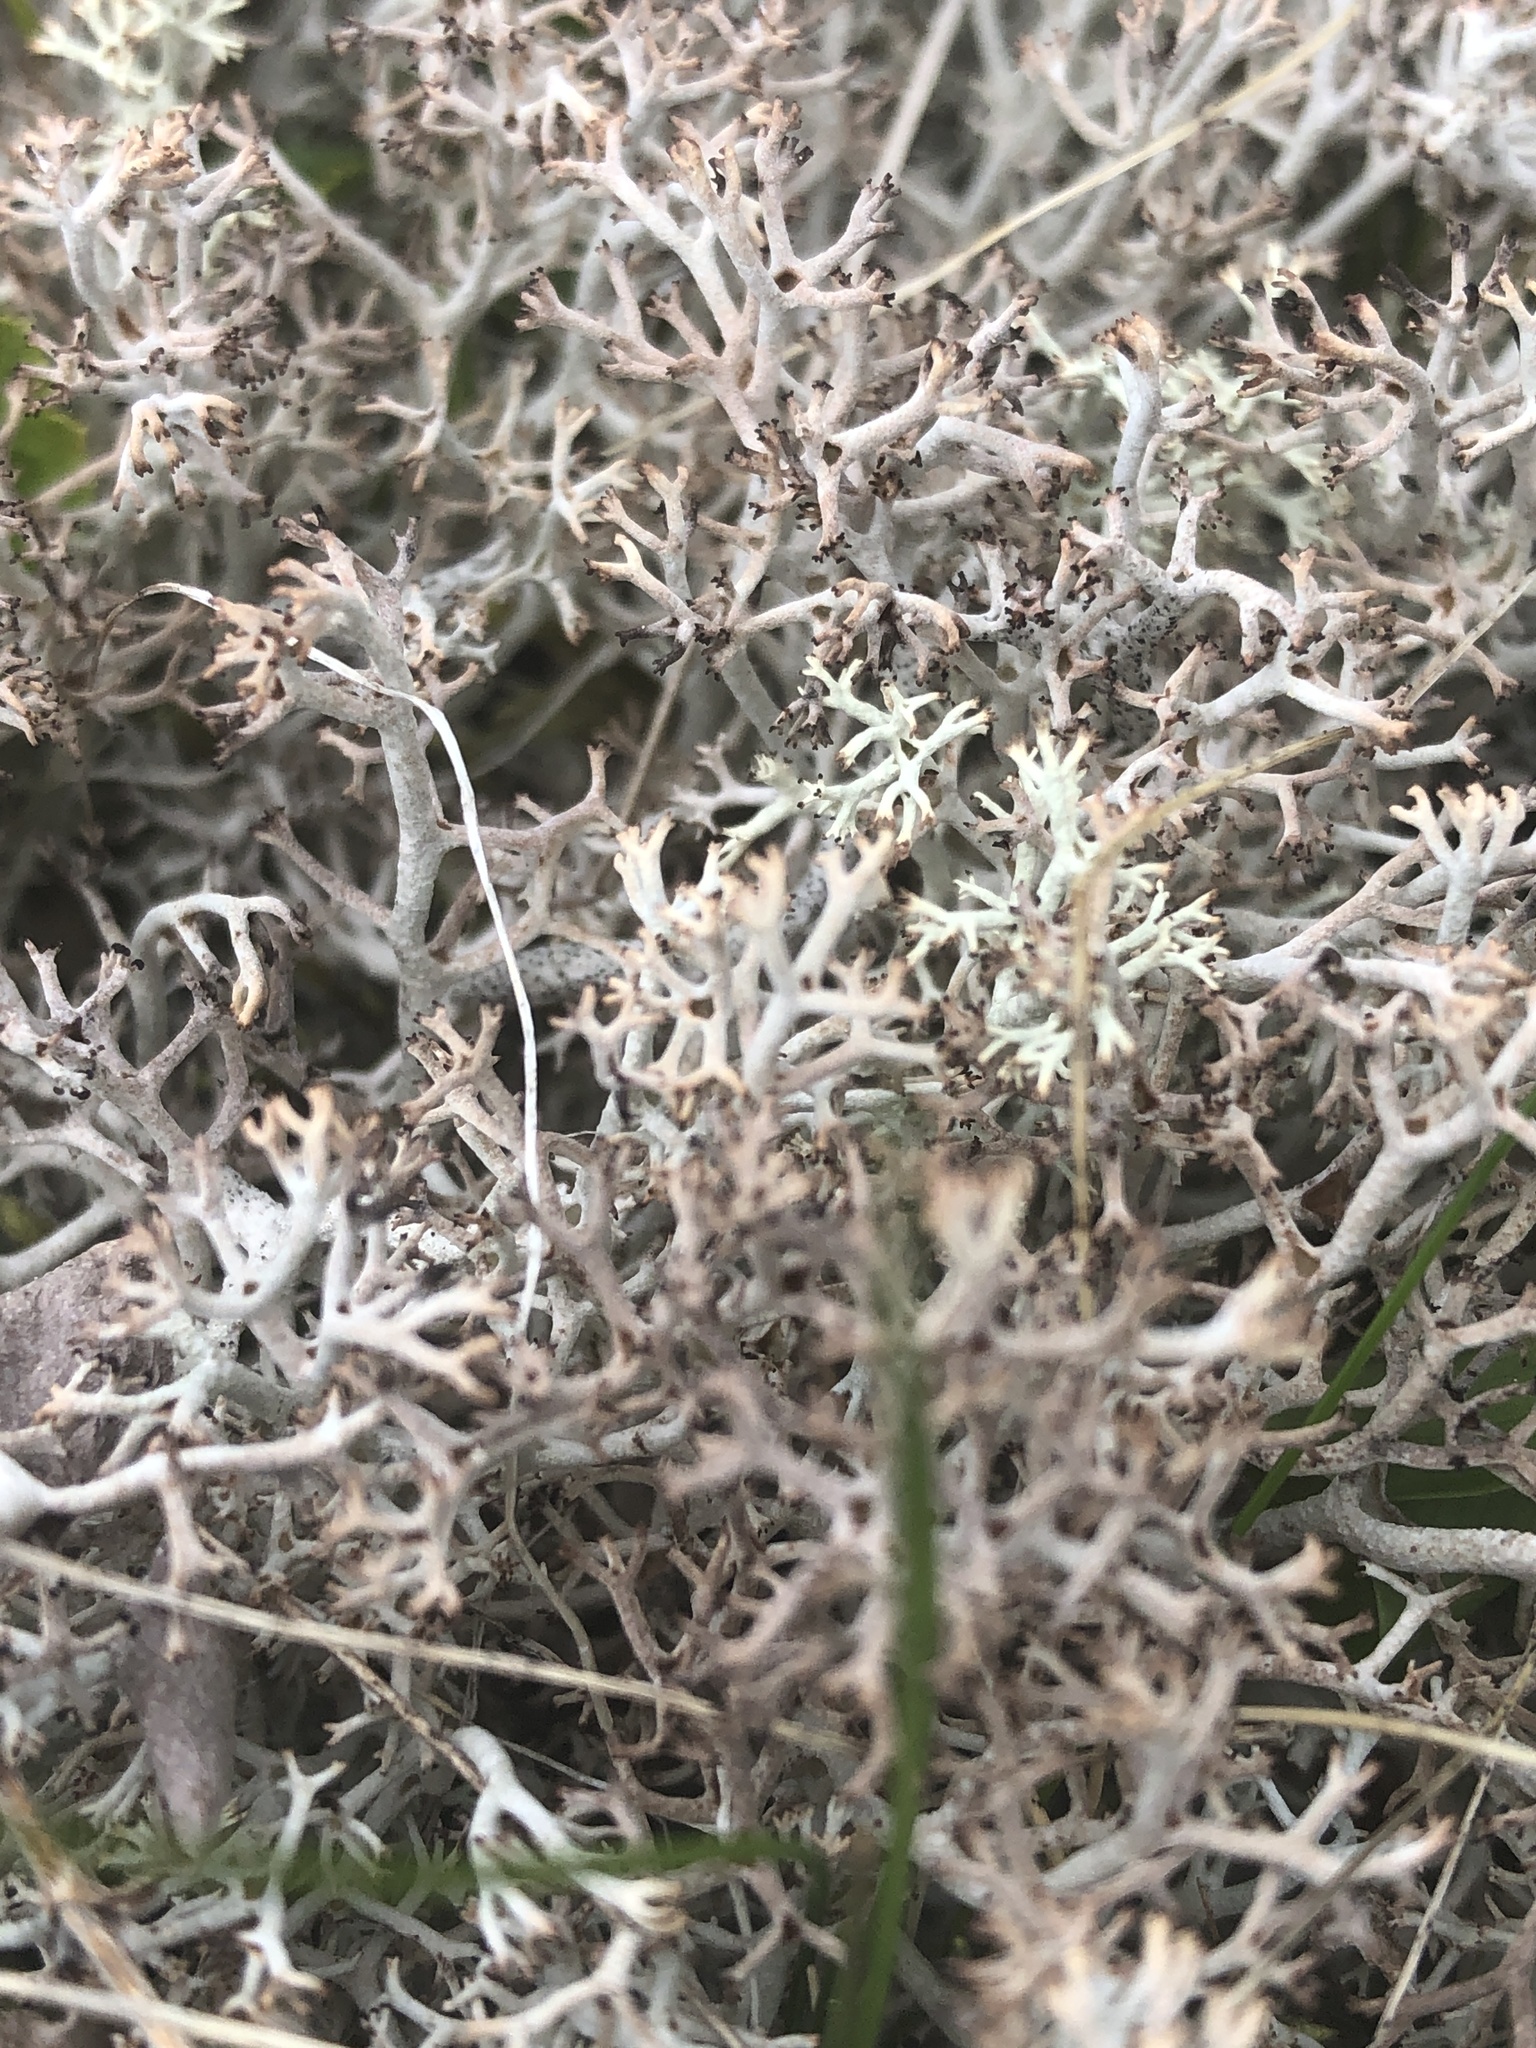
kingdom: Fungi
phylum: Ascomycota
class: Lecanoromycetes
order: Lecanorales
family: Cladoniaceae
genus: Cladonia
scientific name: Cladonia rangiferina
